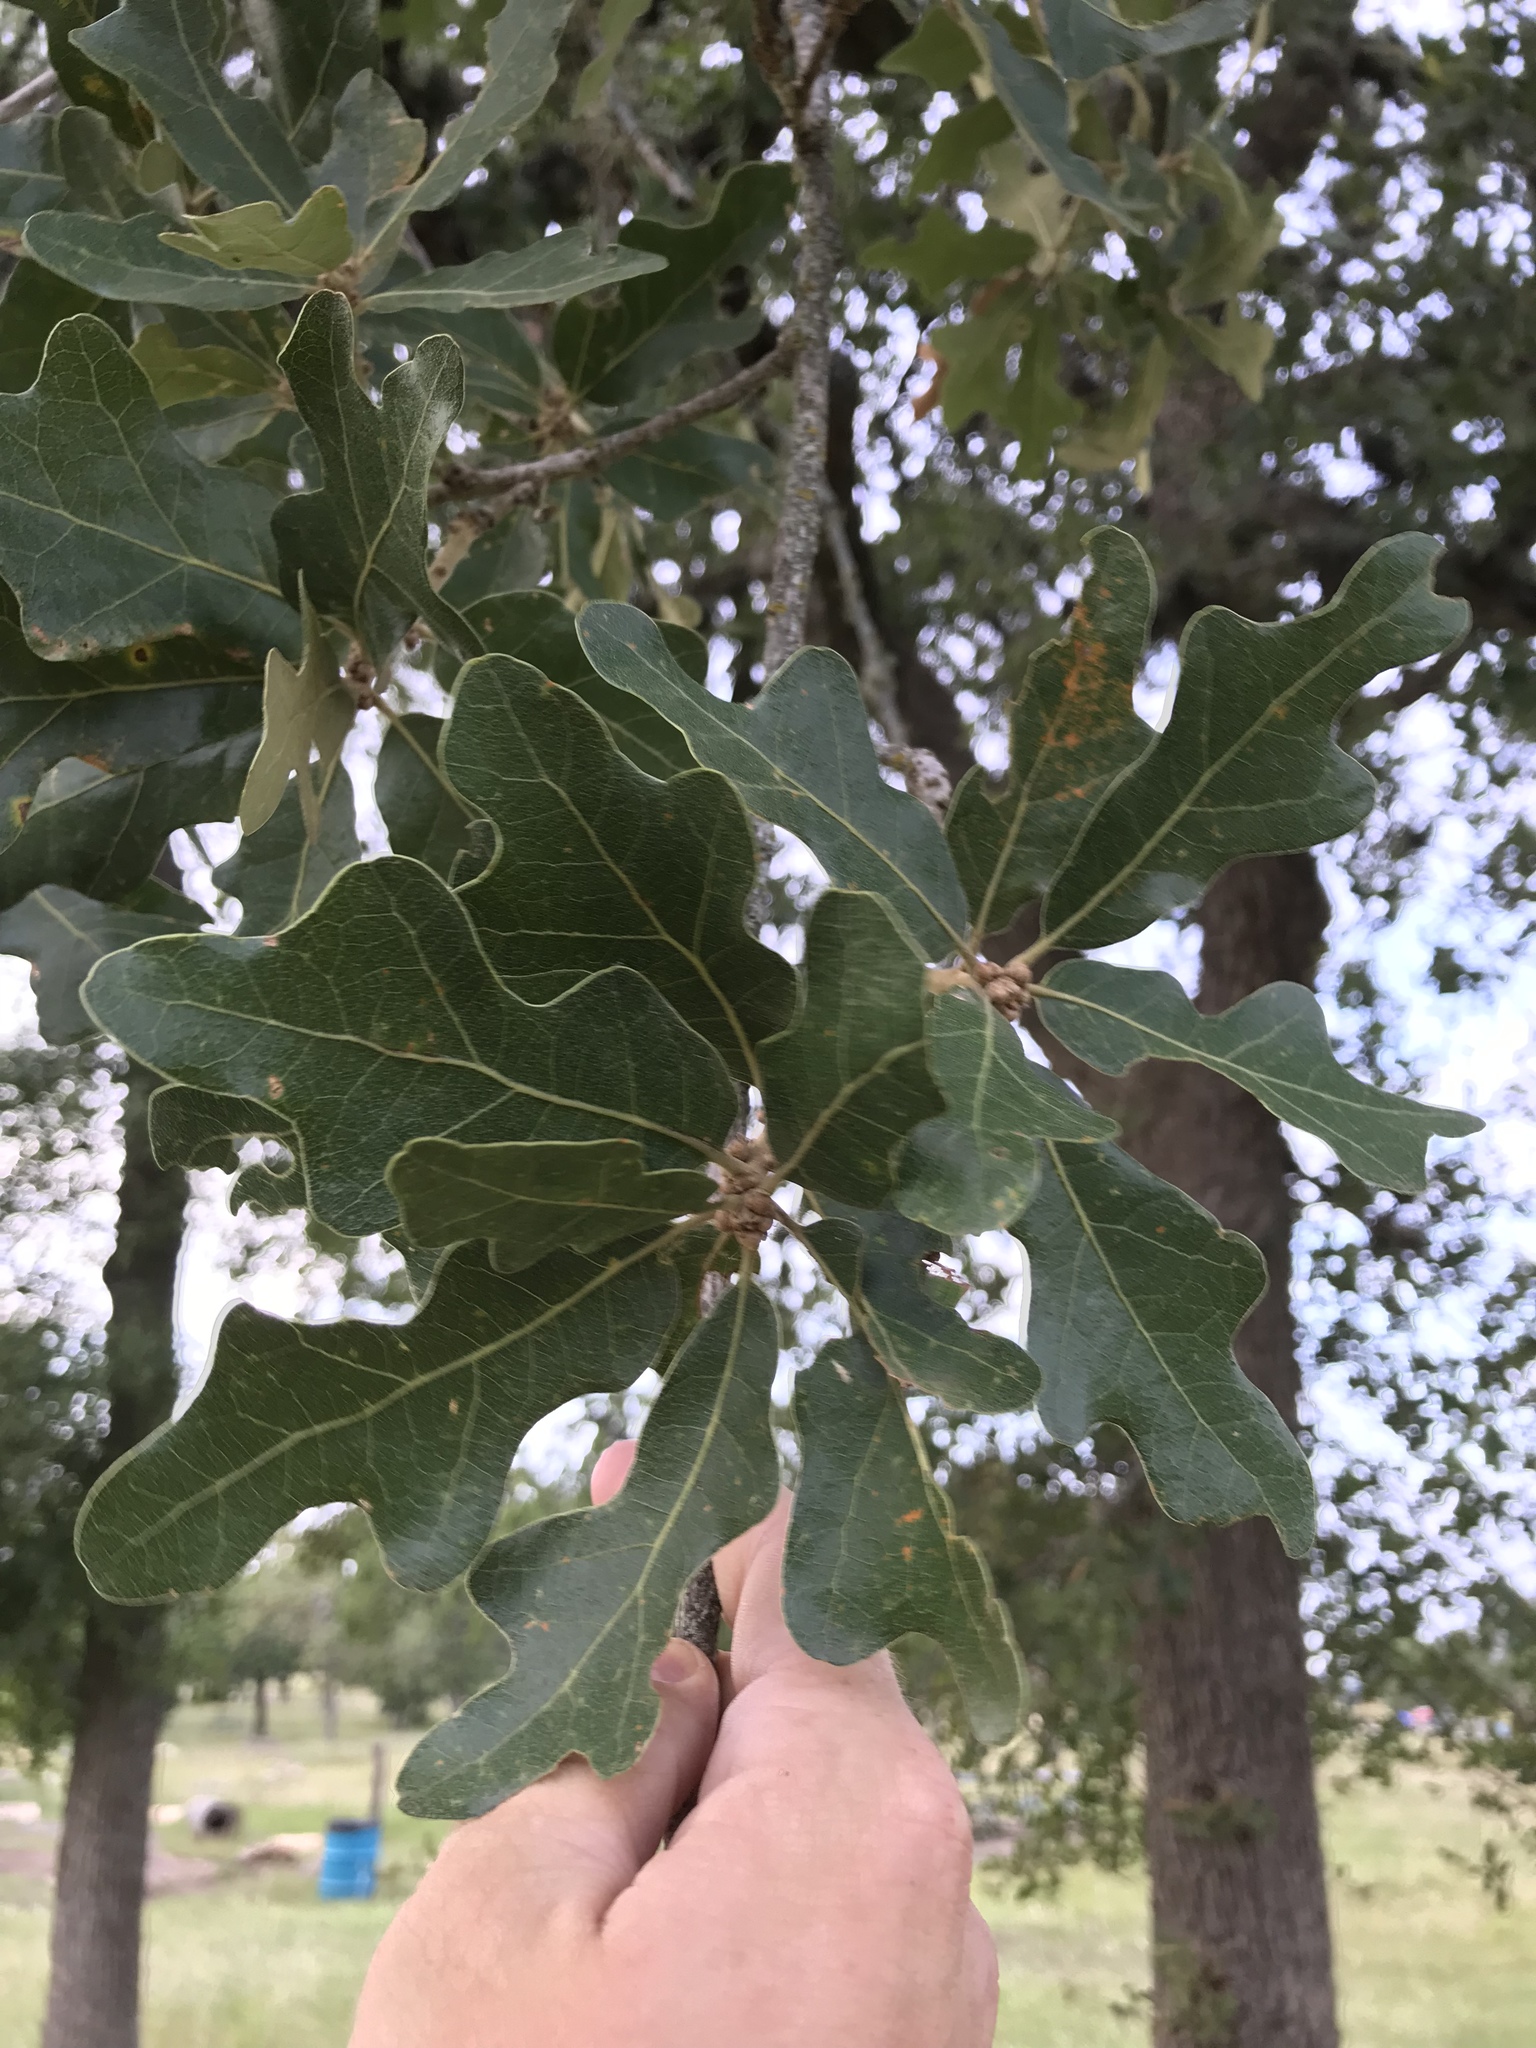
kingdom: Plantae
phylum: Tracheophyta
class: Magnoliopsida
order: Fagales
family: Fagaceae
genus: Quercus
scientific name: Quercus stellata
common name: Post oak
